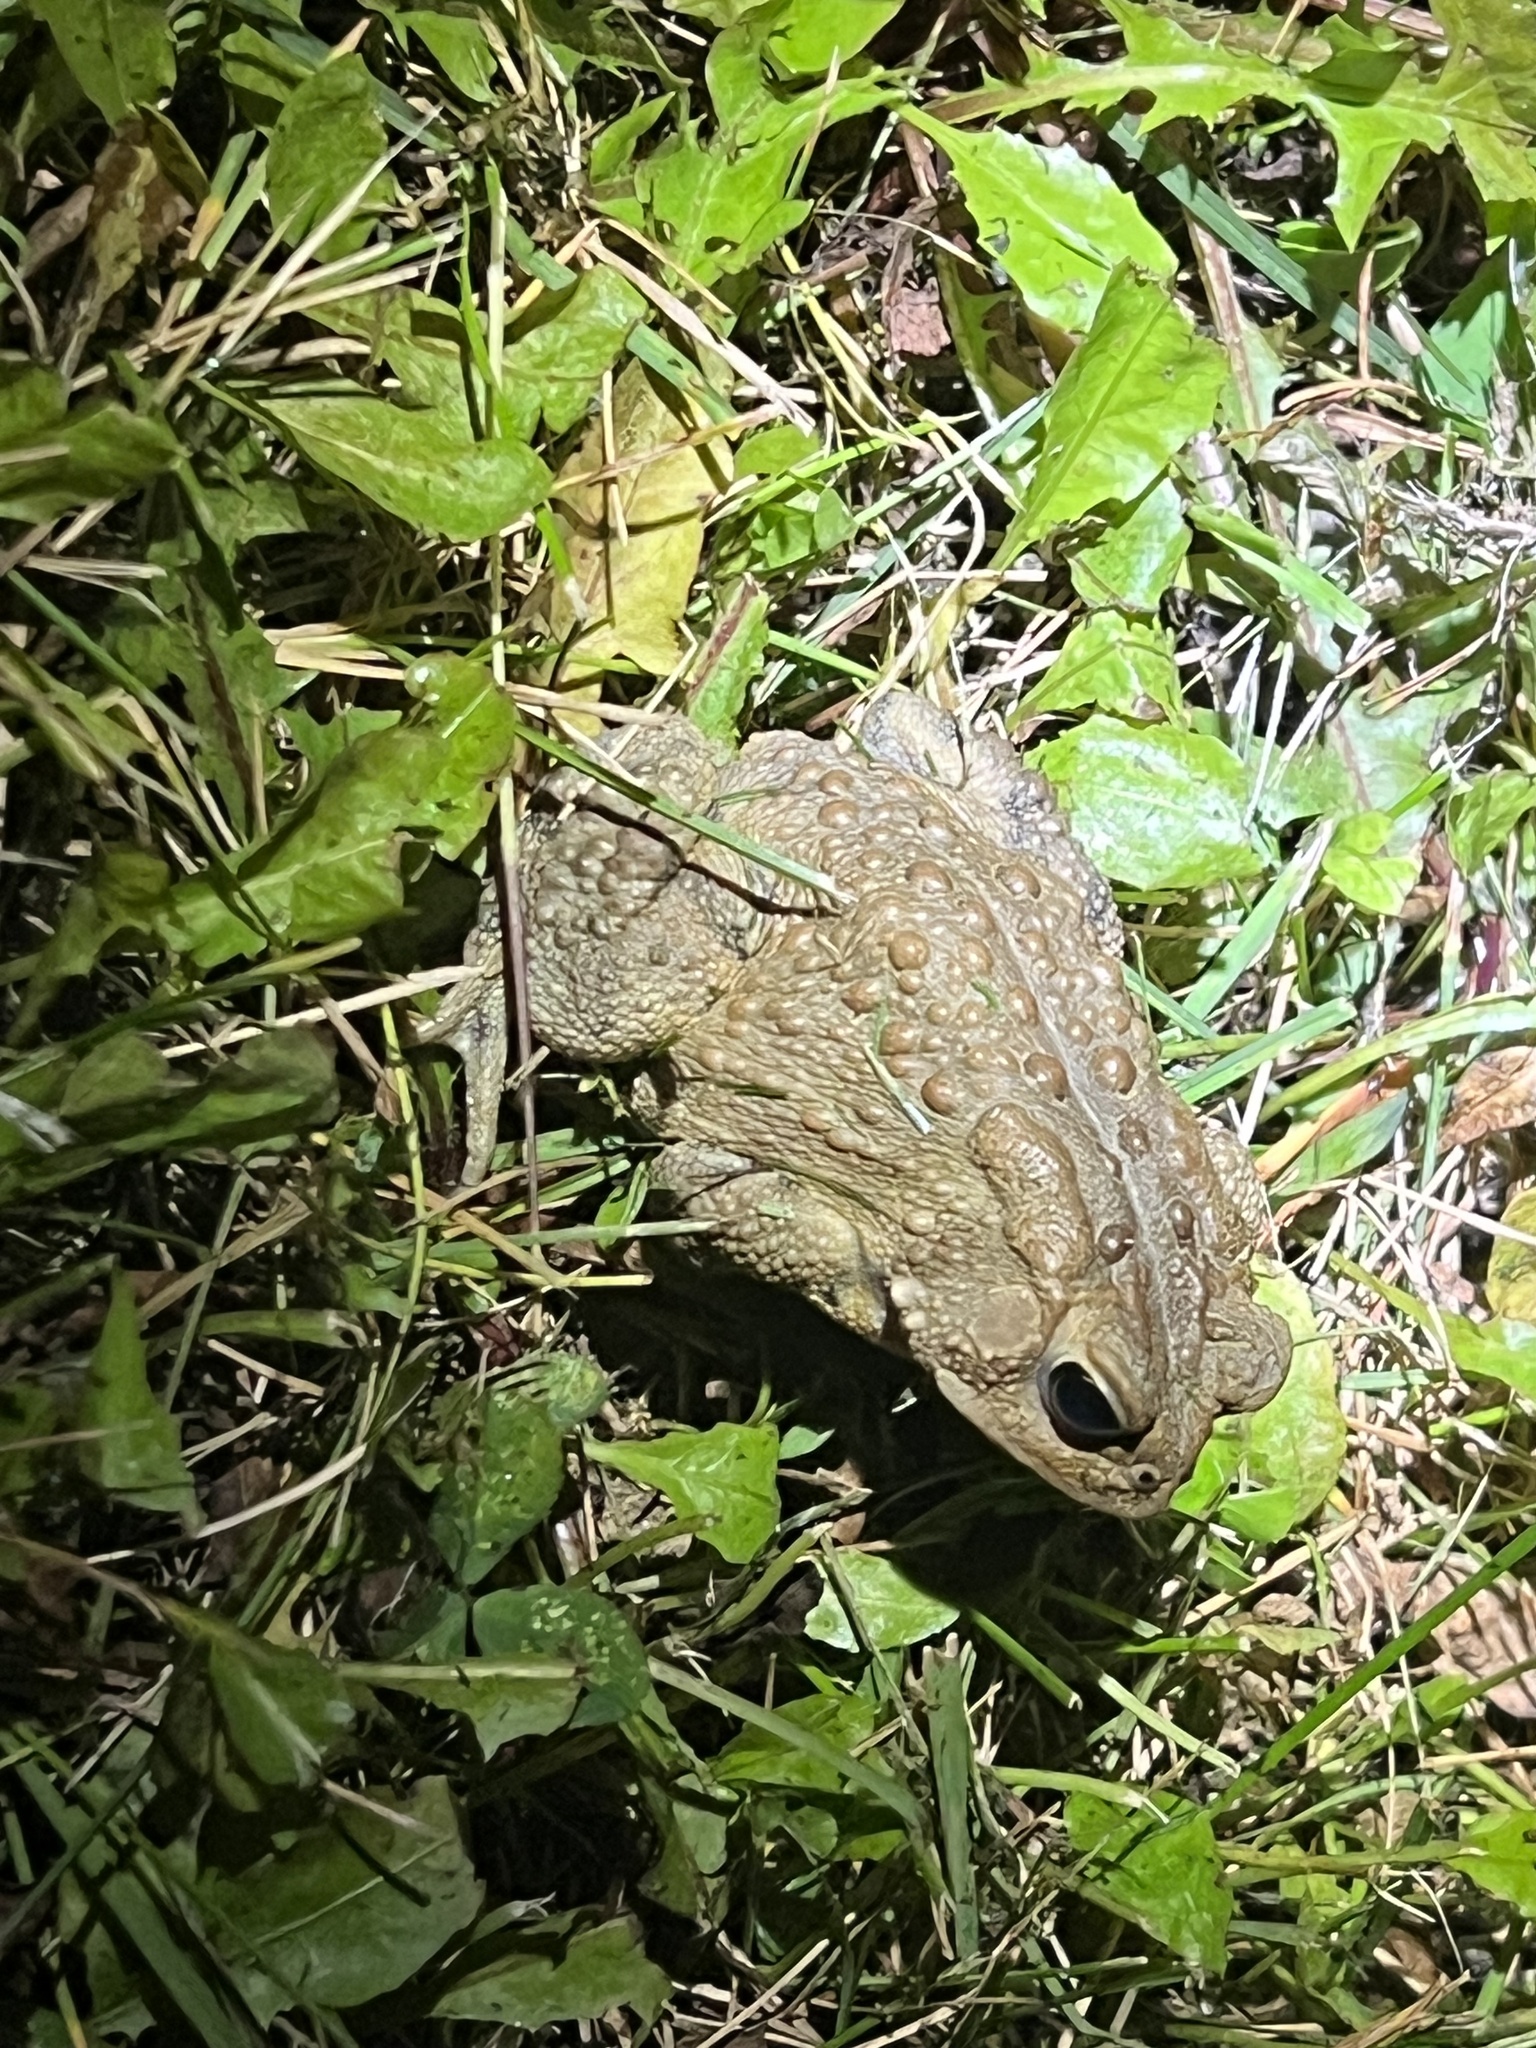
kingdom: Animalia
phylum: Chordata
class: Amphibia
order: Anura
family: Bufonidae
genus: Anaxyrus
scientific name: Anaxyrus americanus
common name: American toad
